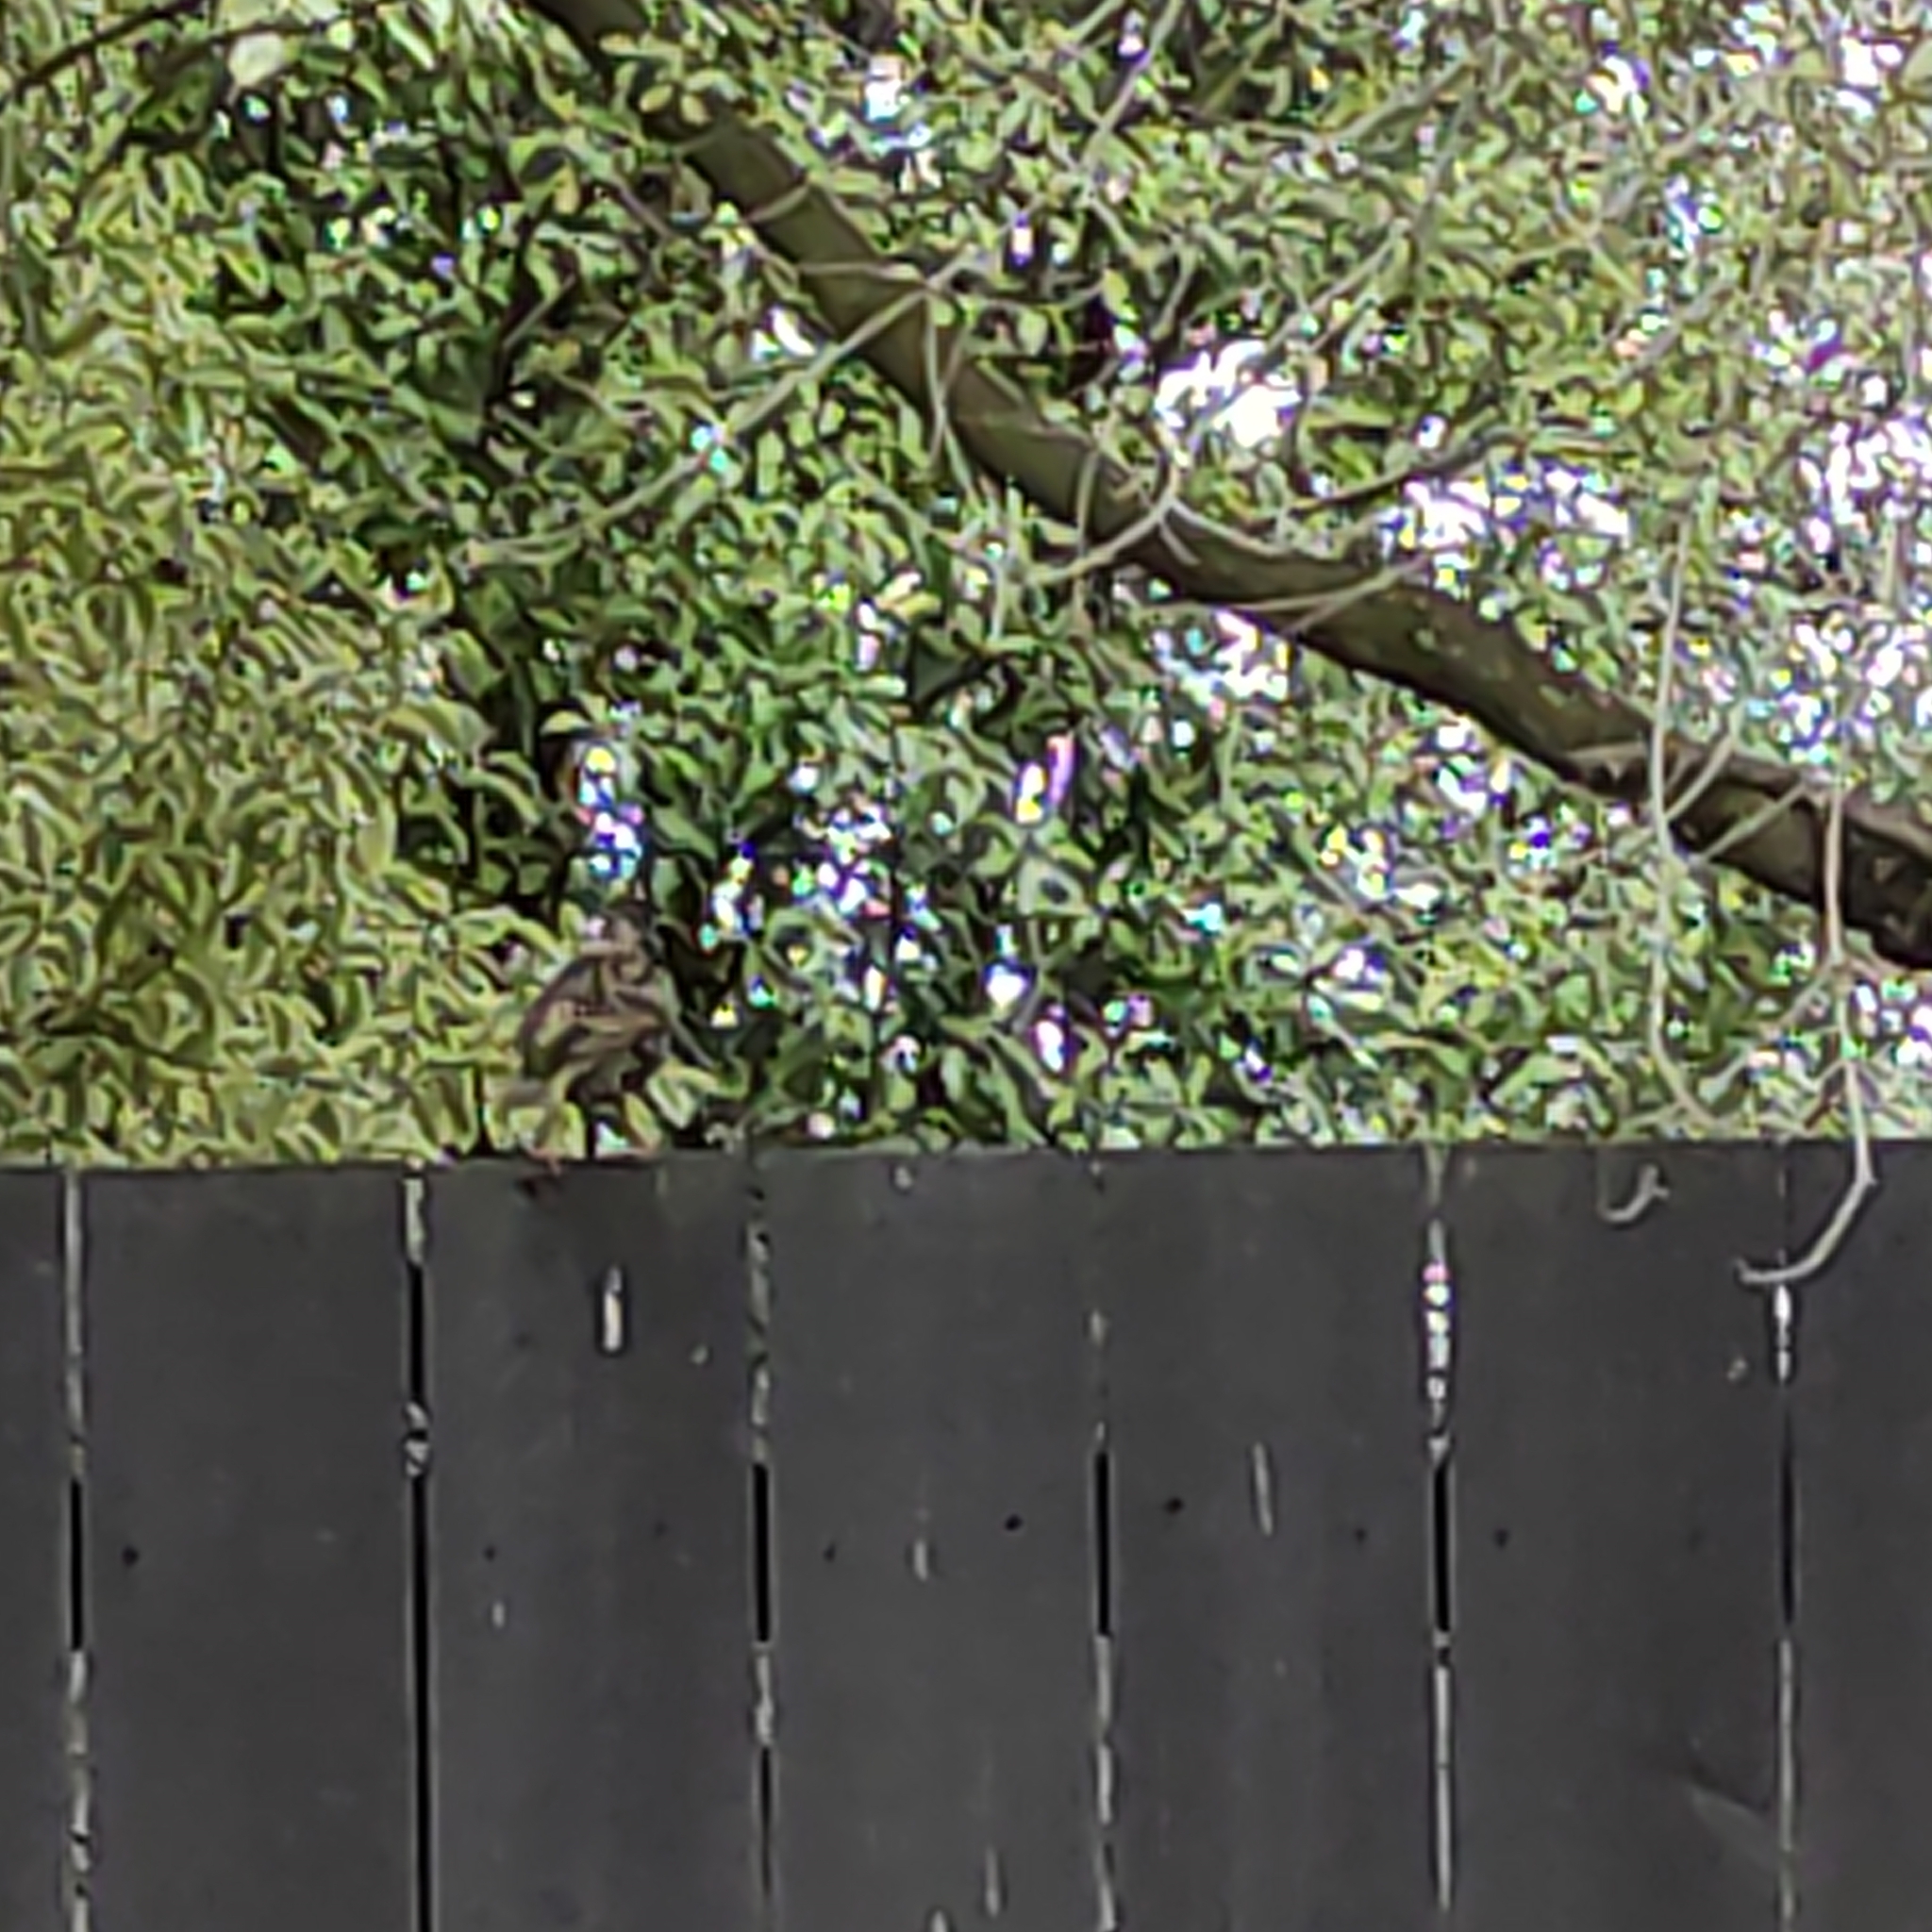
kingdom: Animalia
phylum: Chordata
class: Aves
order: Passeriformes
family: Sturnidae
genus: Sturnus
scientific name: Sturnus vulgaris
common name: Common starling
